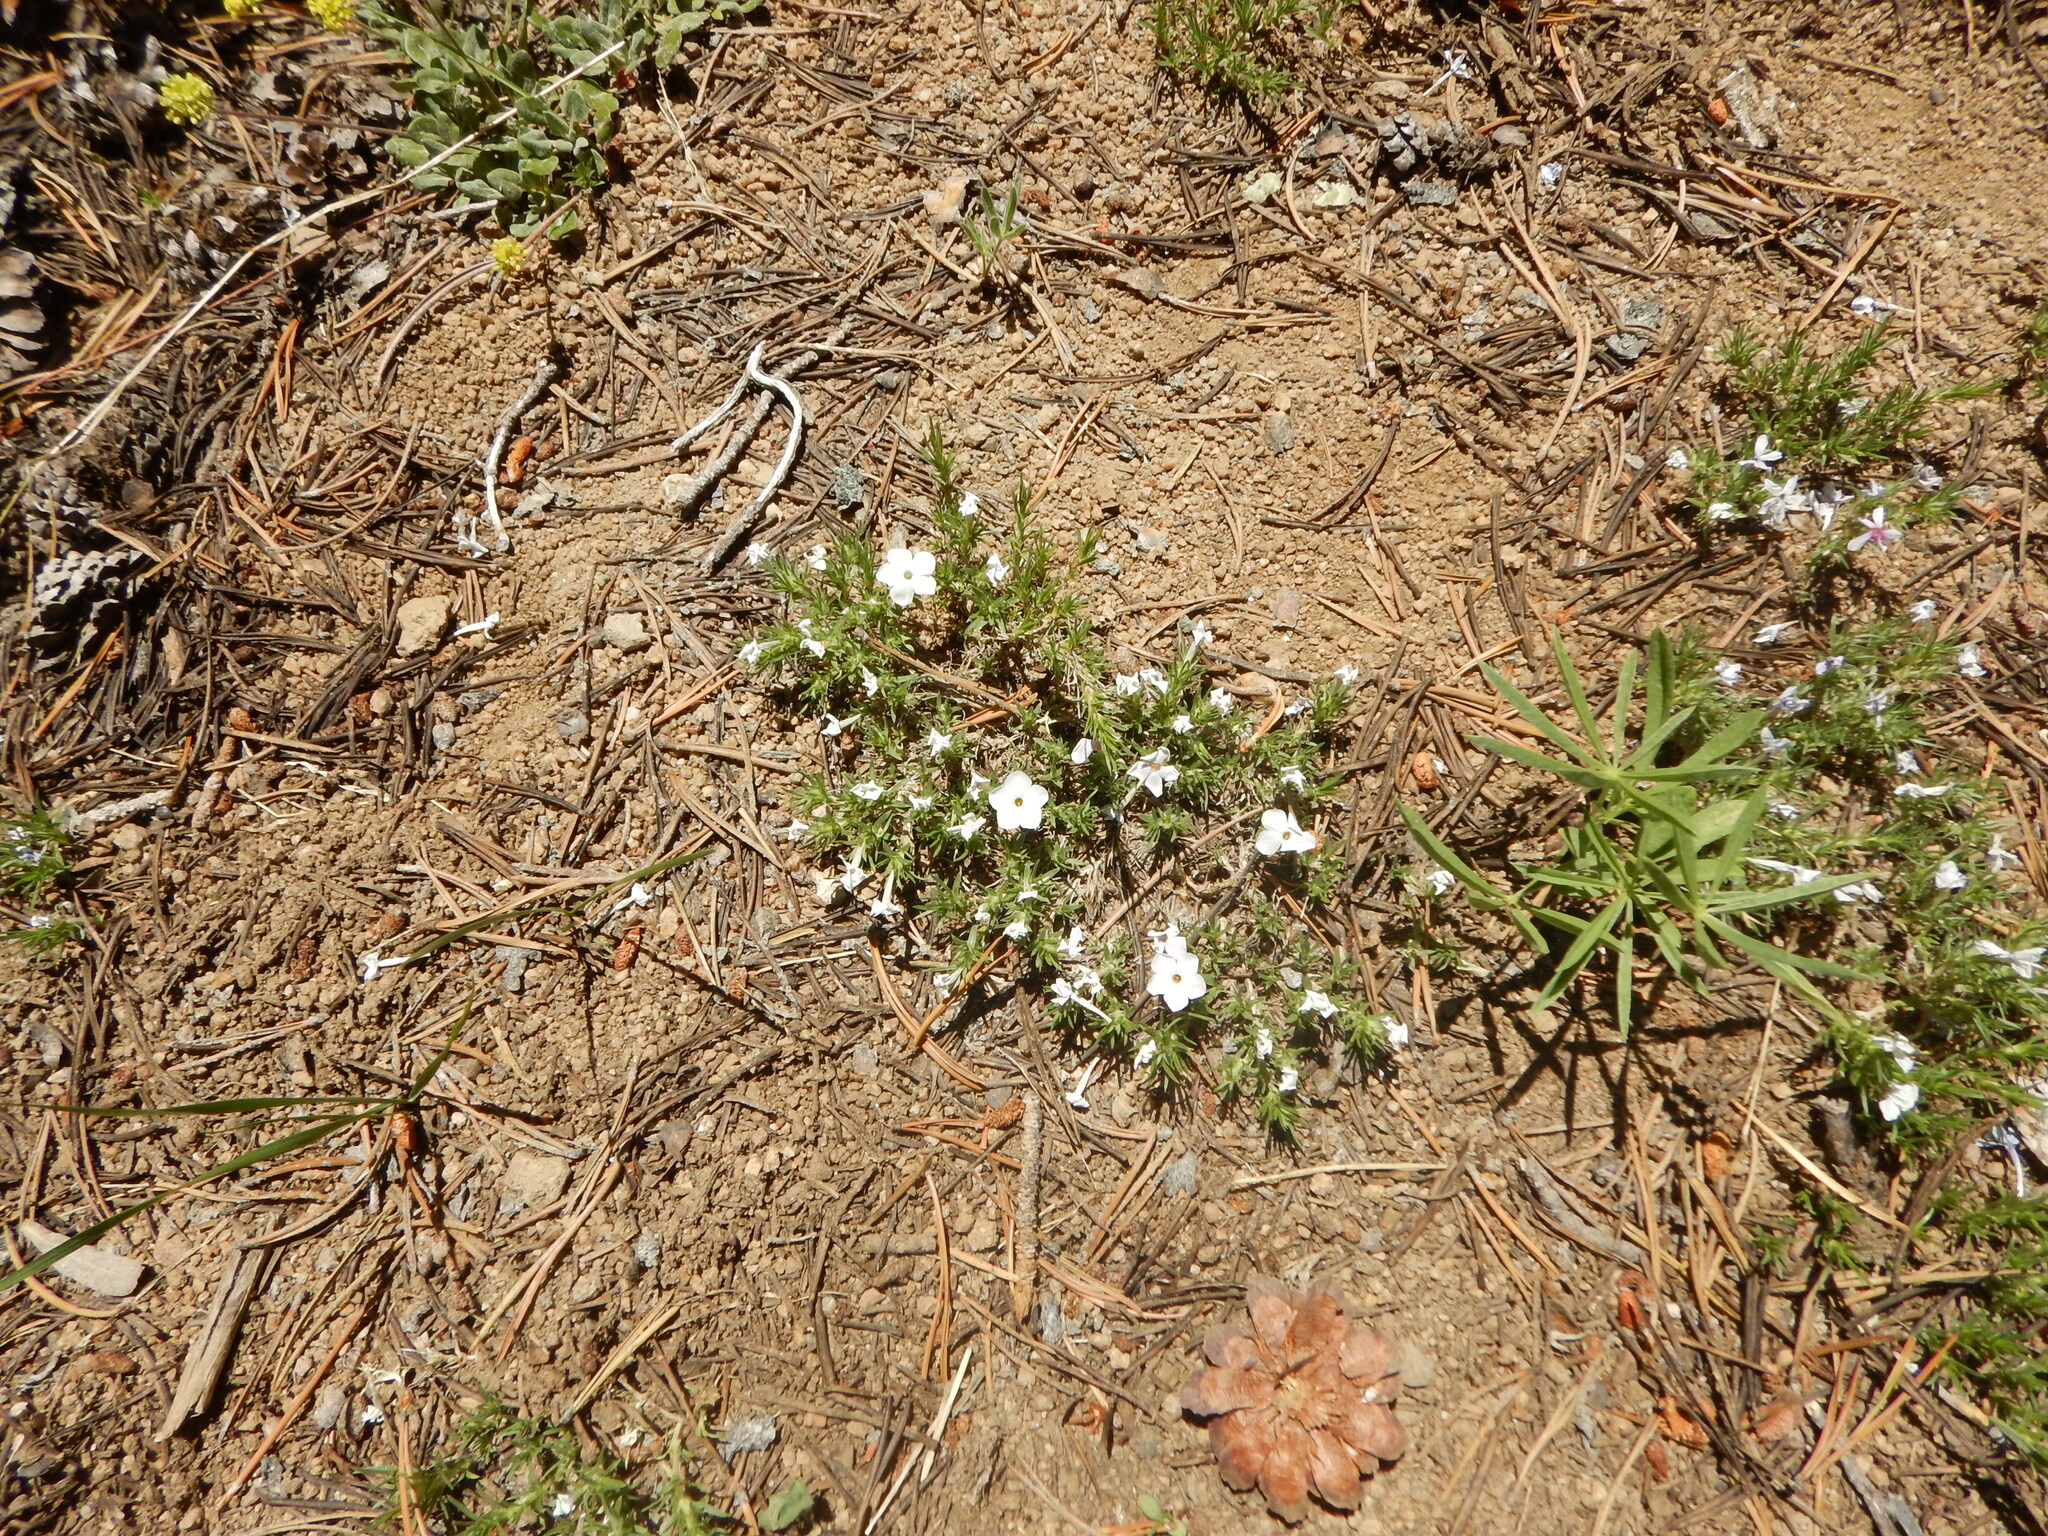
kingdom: Plantae
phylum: Tracheophyta
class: Magnoliopsida
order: Ericales
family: Polemoniaceae
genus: Phlox
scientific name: Phlox diffusa
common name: Mat phlox
